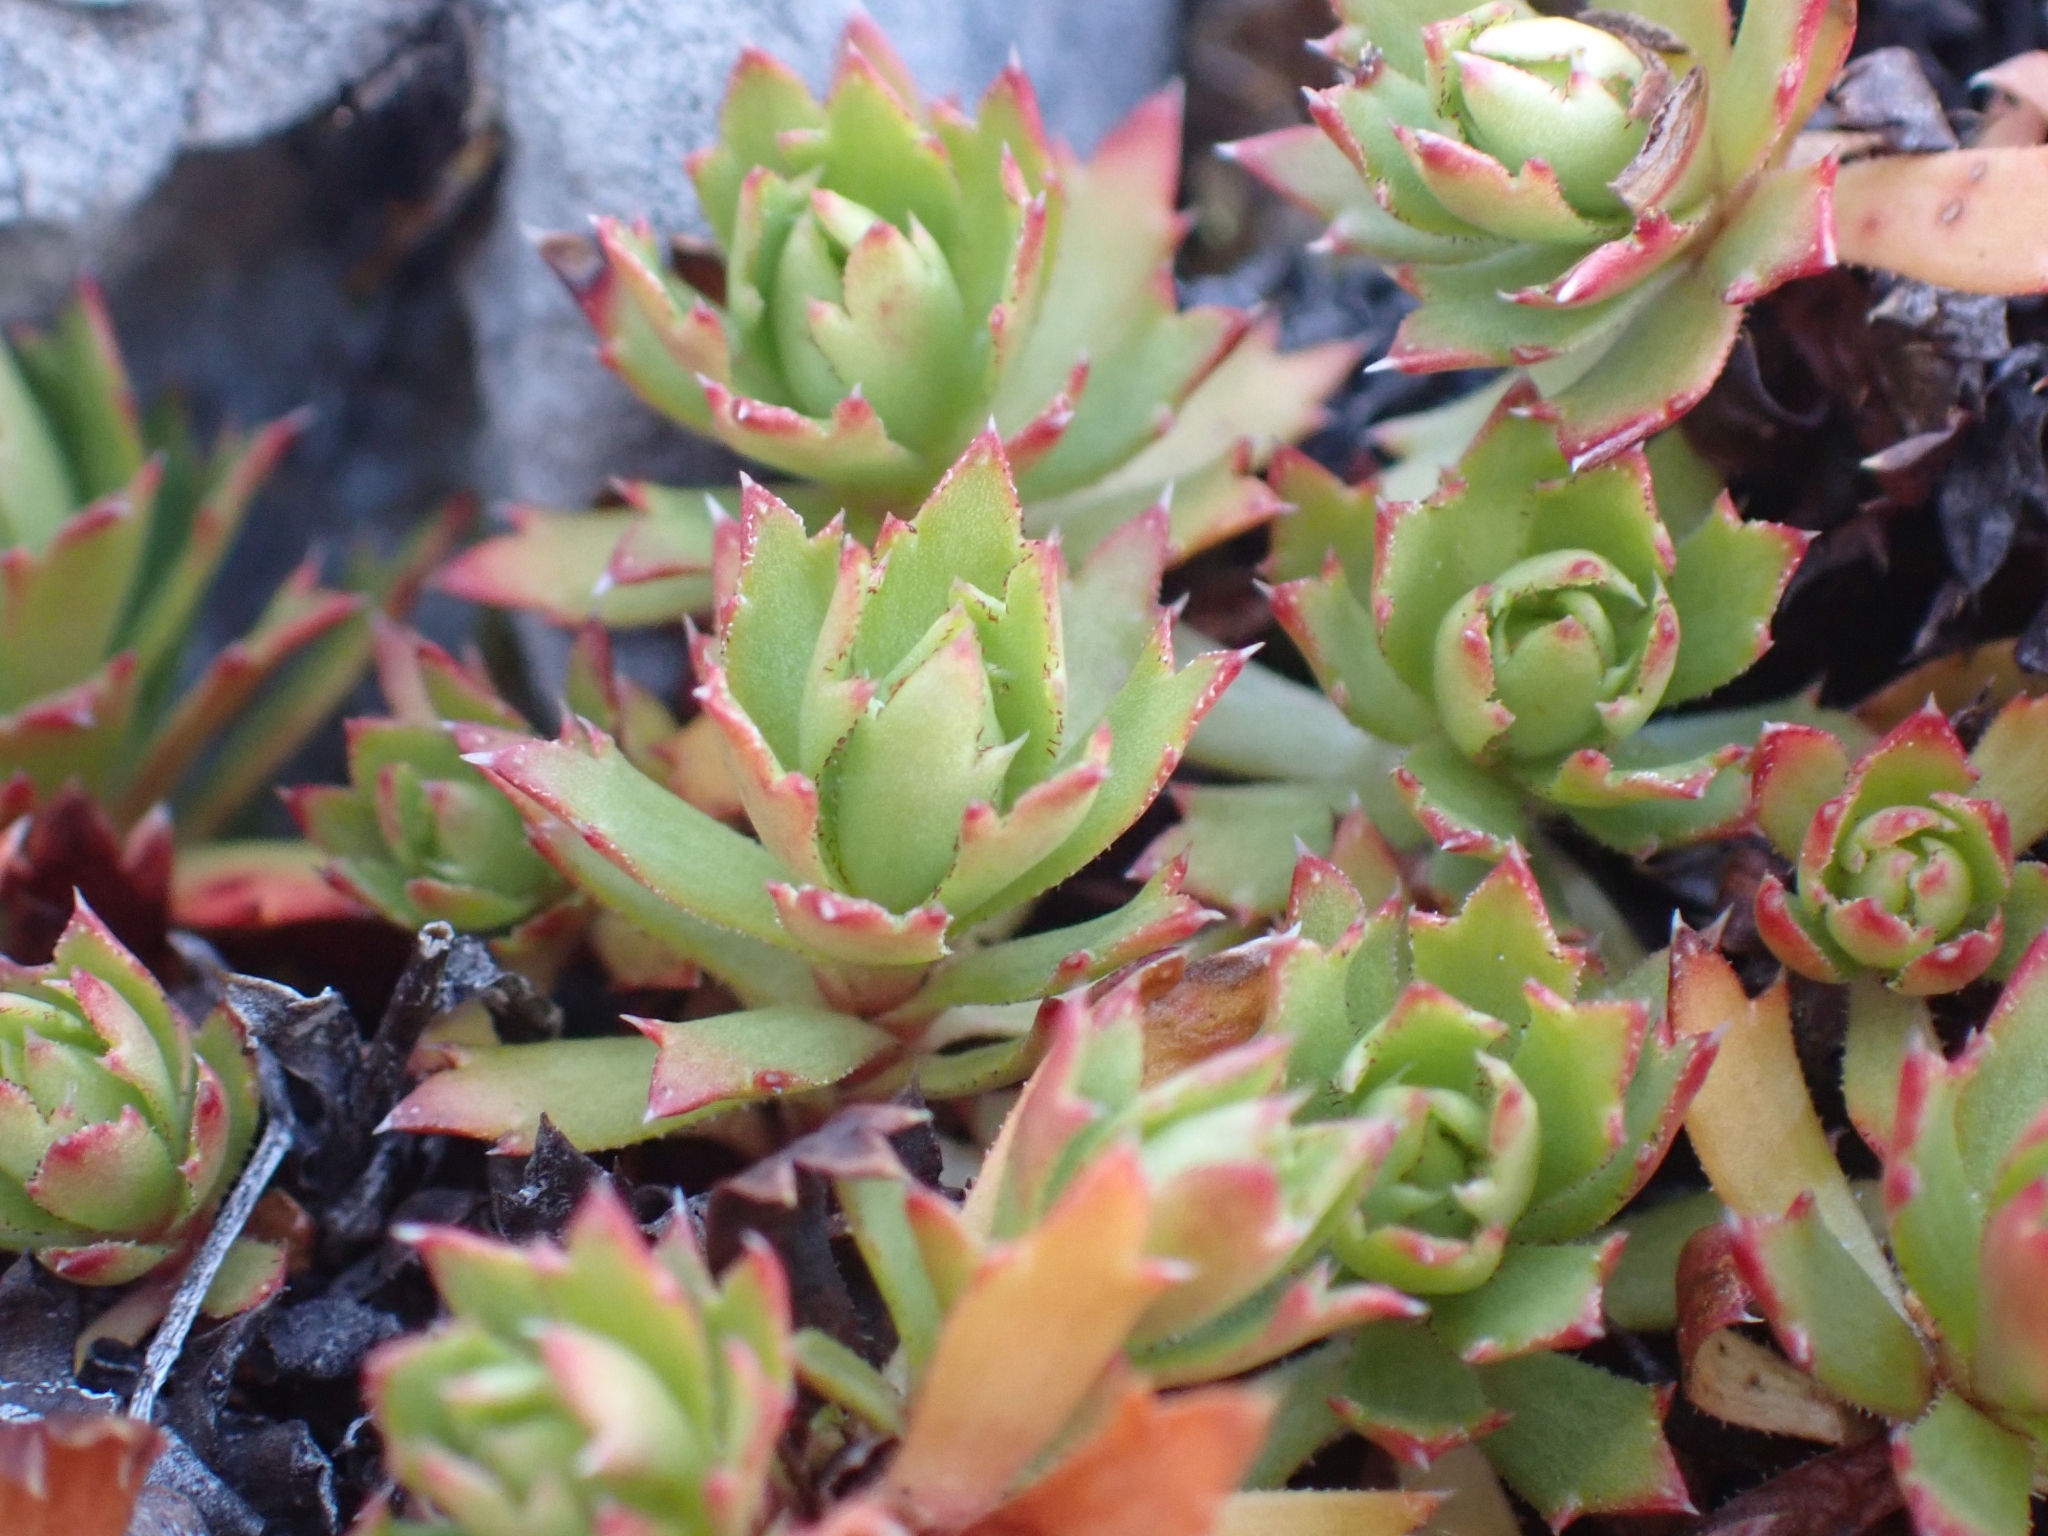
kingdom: Plantae
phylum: Tracheophyta
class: Magnoliopsida
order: Saxifragales
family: Saxifragaceae
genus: Saxifraga
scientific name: Saxifraga tricuspidata
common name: Prickly saxifrage
